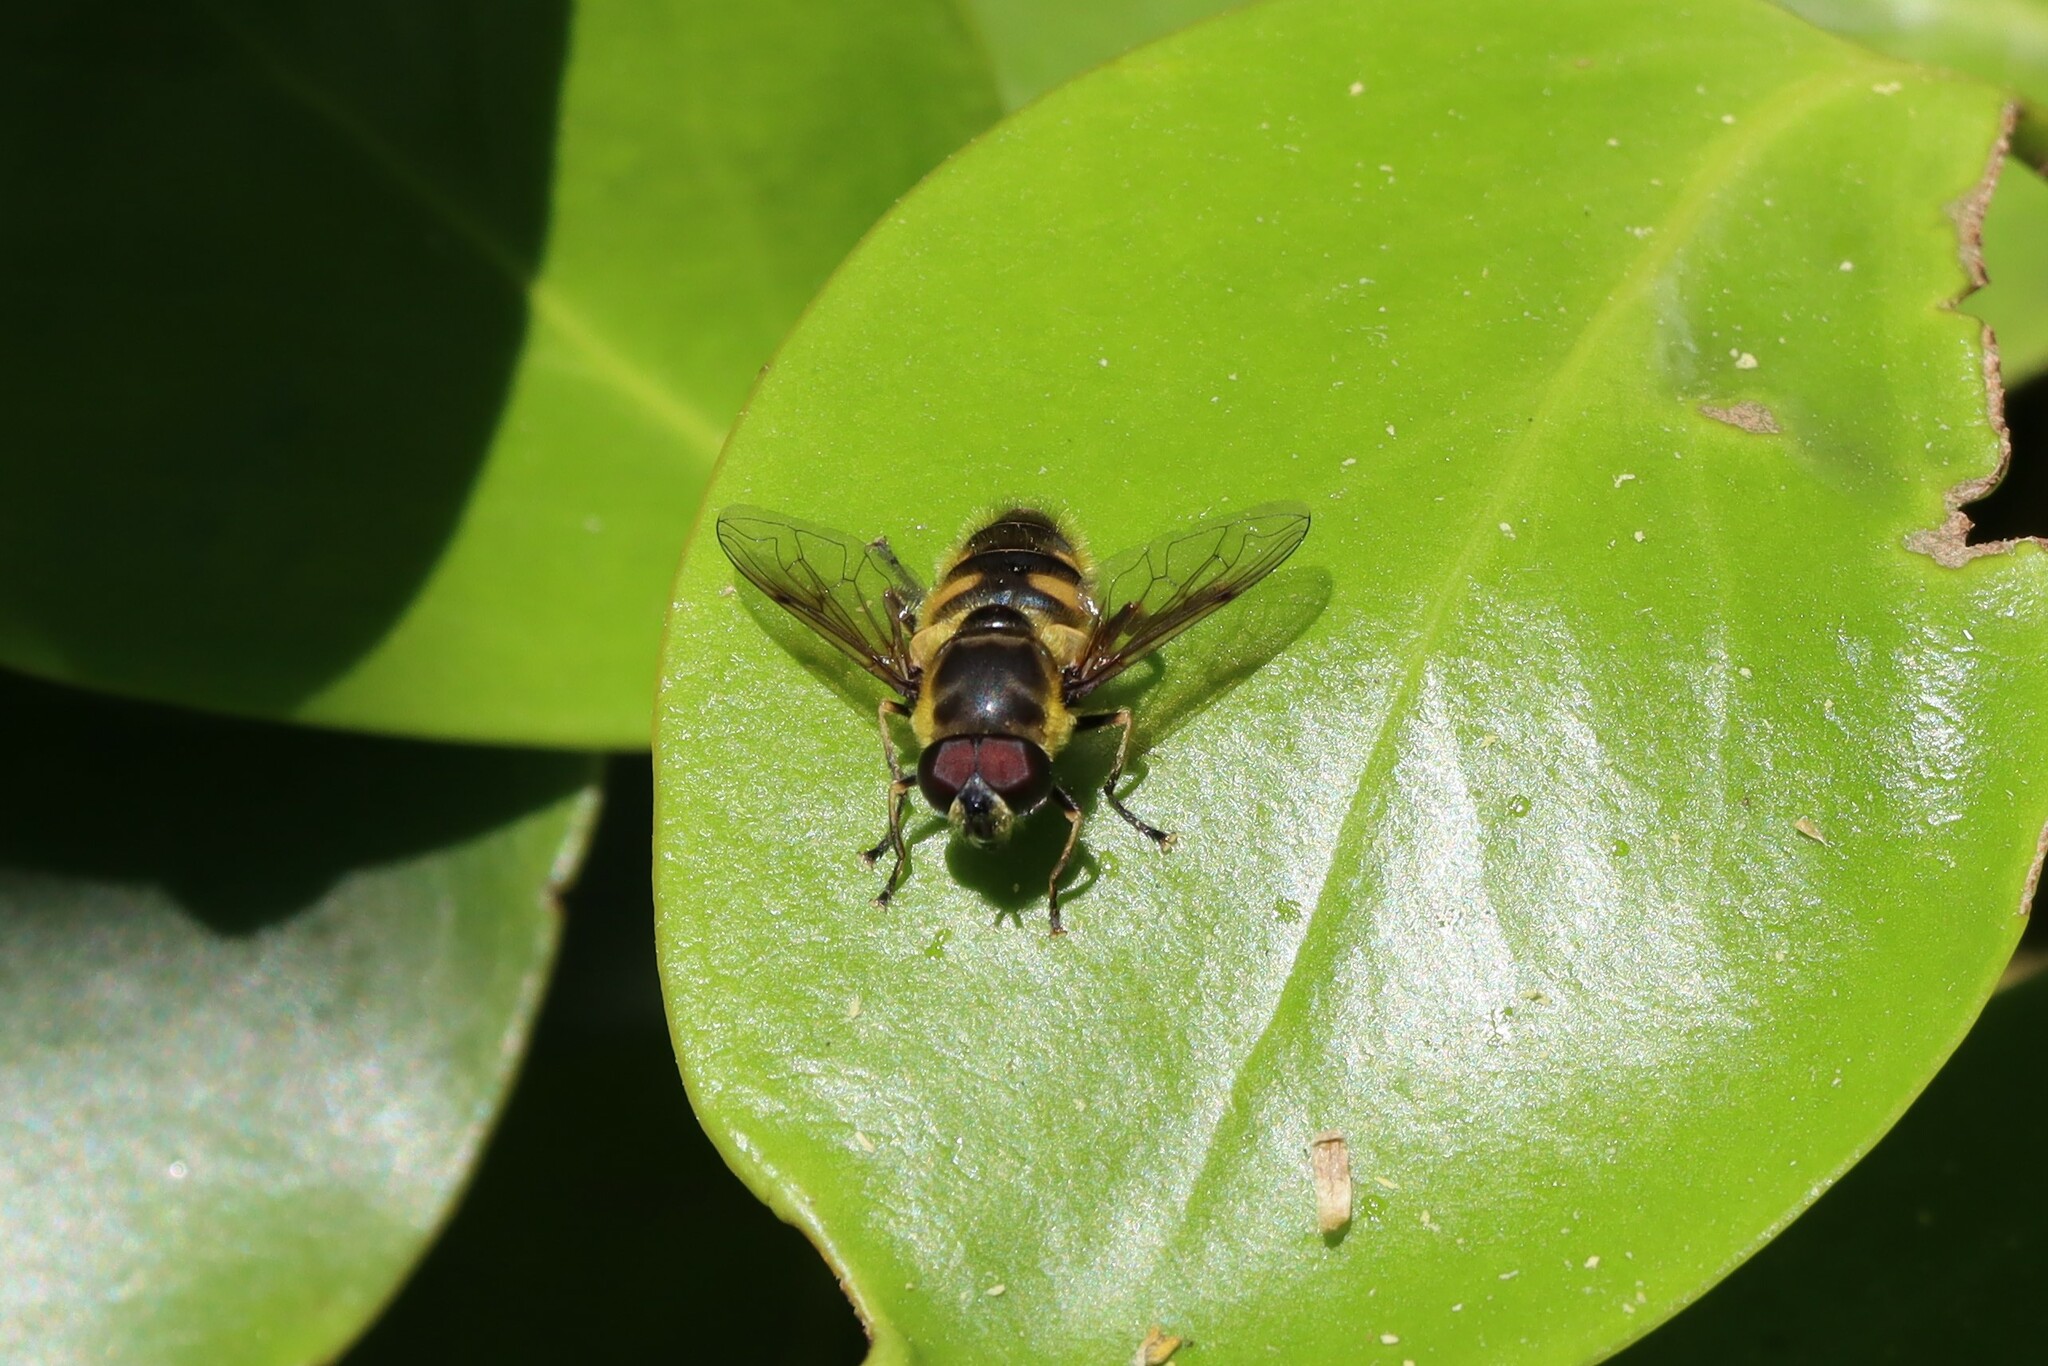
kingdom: Animalia
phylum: Arthropoda
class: Insecta
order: Diptera
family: Syrphidae
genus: Myathropa
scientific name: Myathropa florea
